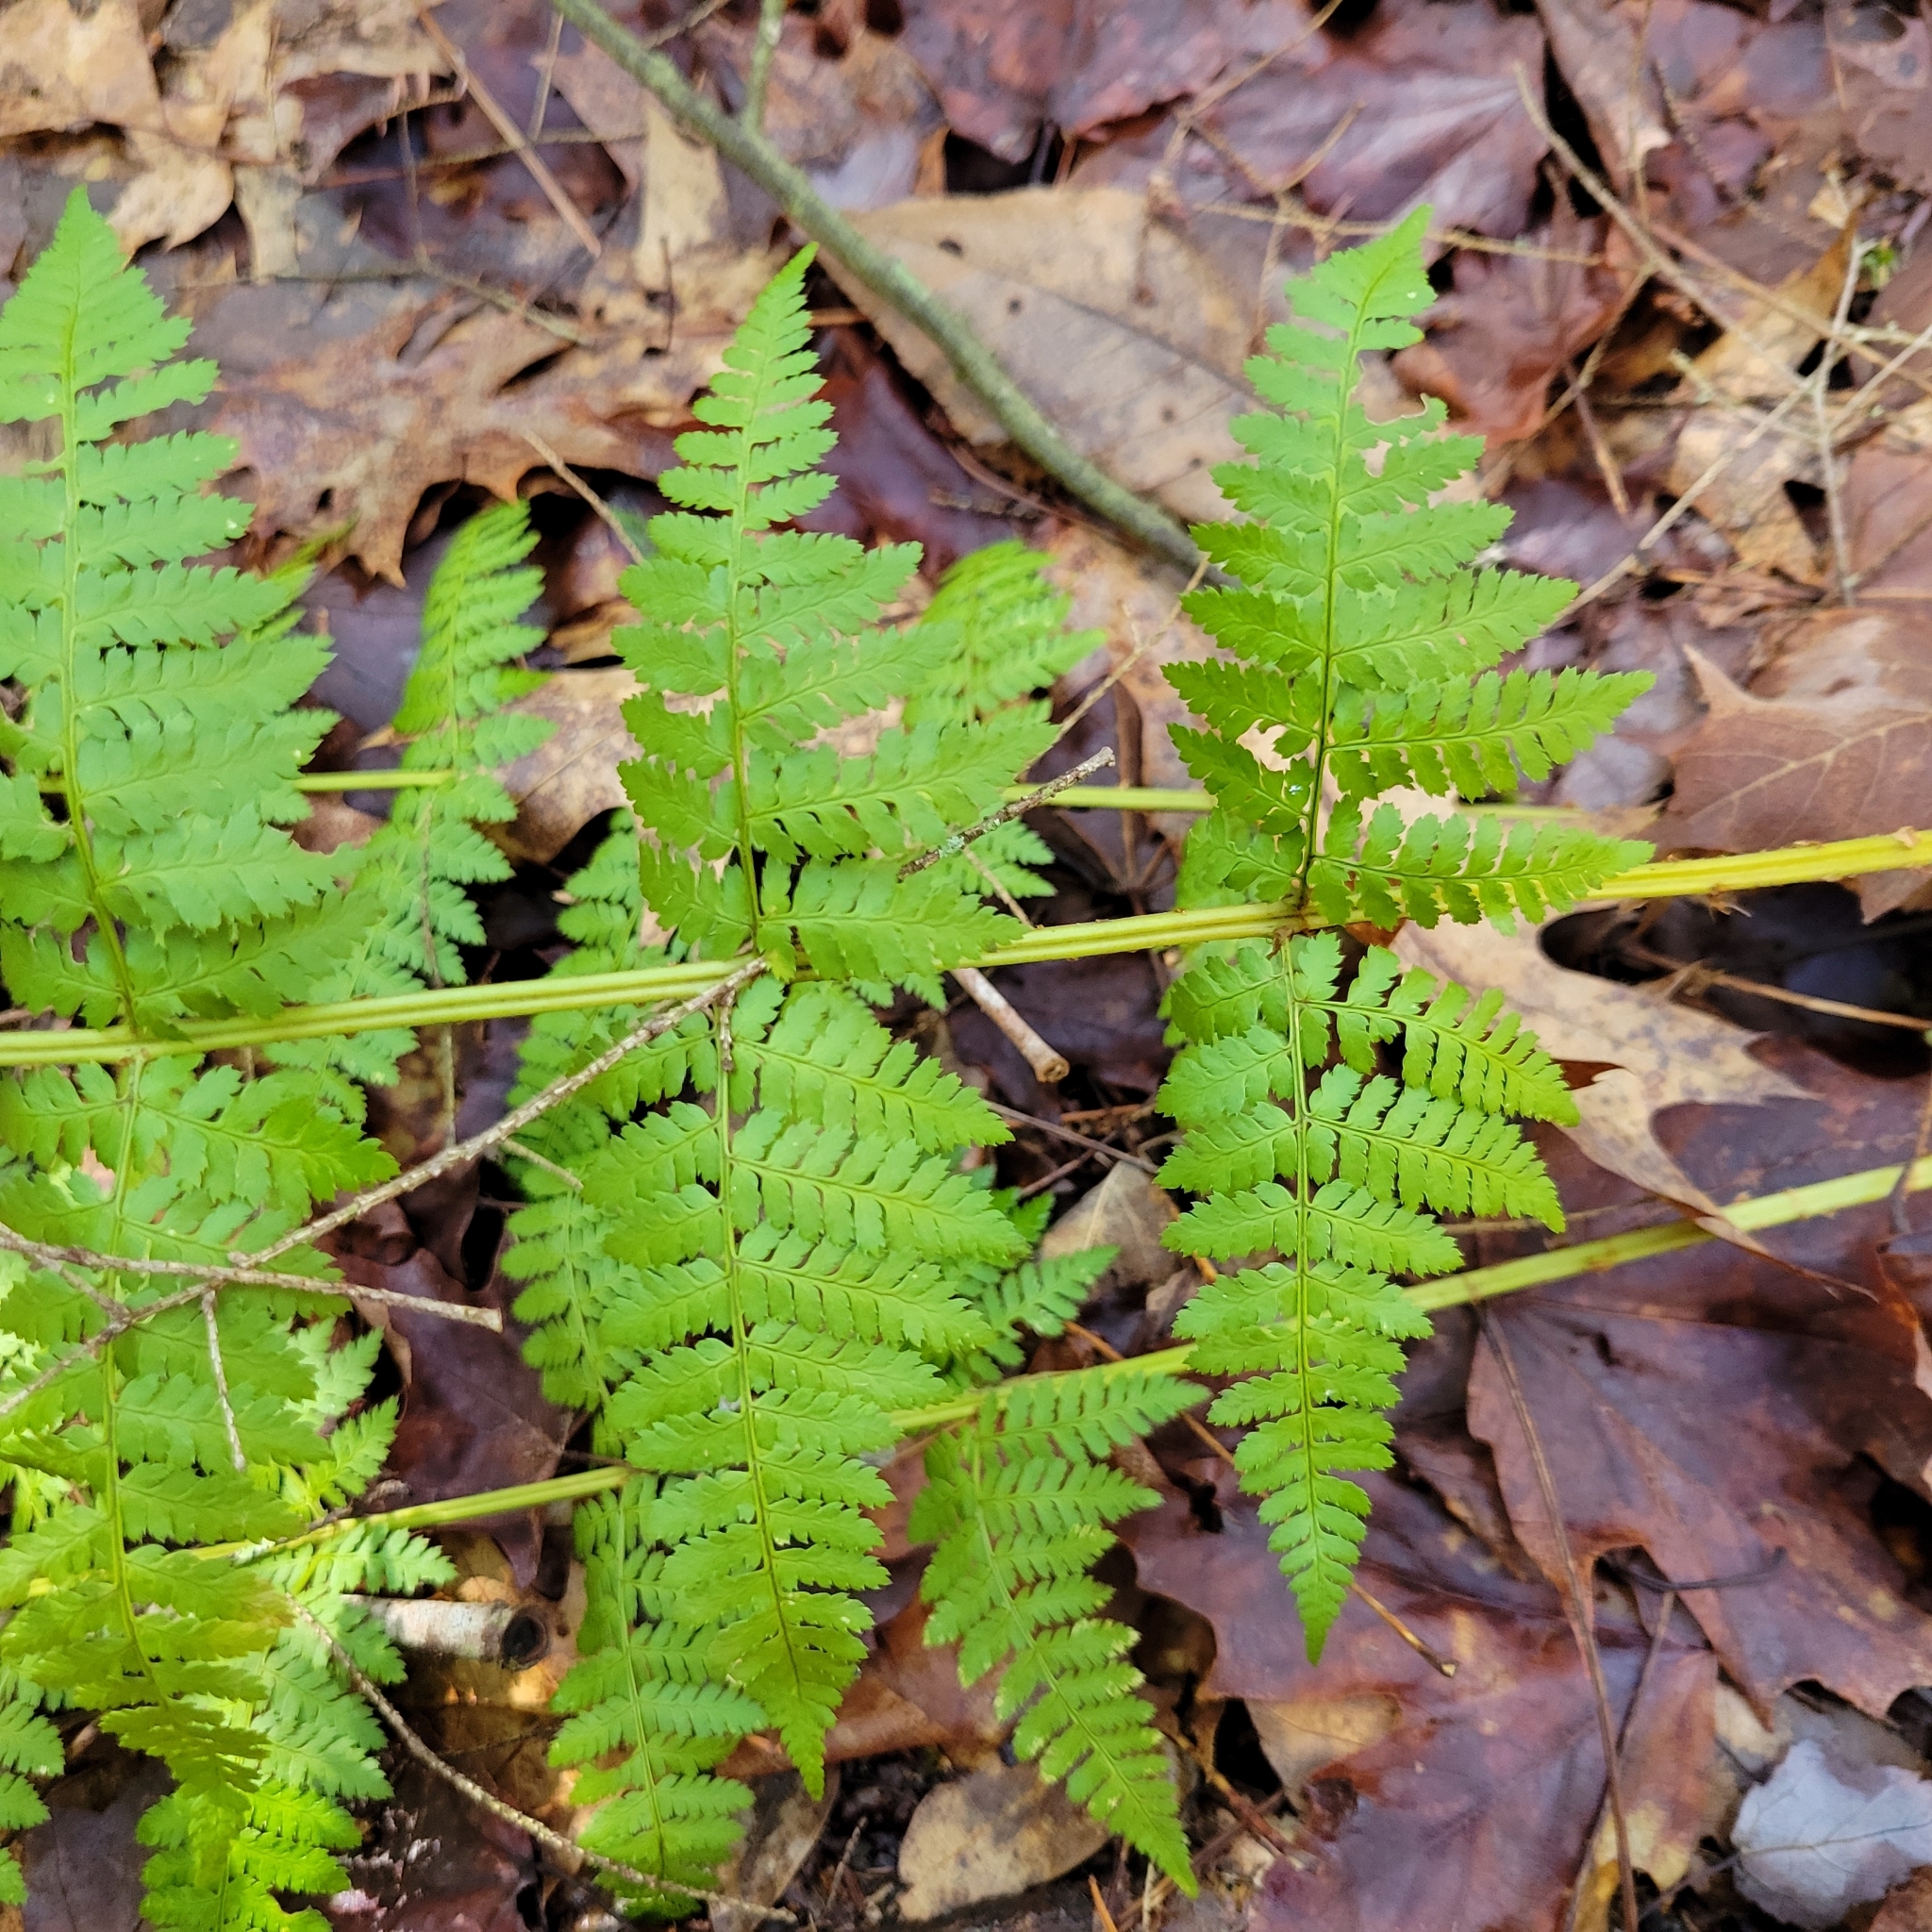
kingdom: Plantae
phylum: Tracheophyta
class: Polypodiopsida
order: Polypodiales
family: Dryopteridaceae
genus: Dryopteris
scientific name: Dryopteris intermedia
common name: Evergreen wood fern
